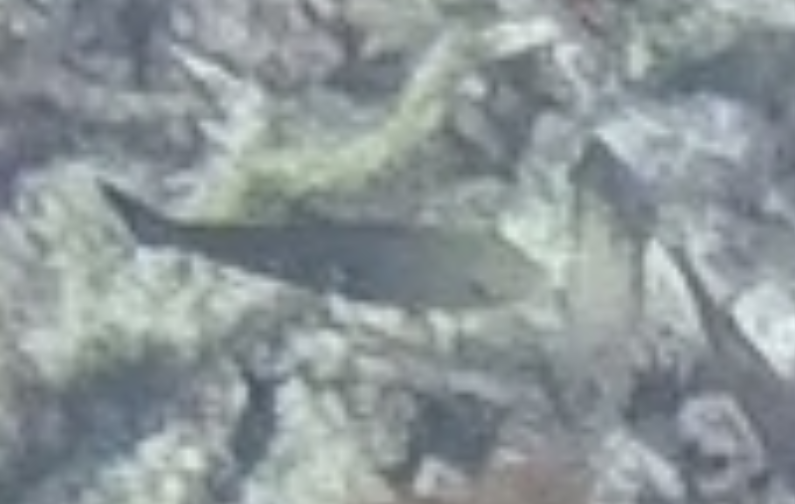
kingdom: Animalia
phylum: Chordata
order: Perciformes
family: Scaridae
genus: Scarus
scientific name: Scarus psittacus
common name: Palenose parrotfish
